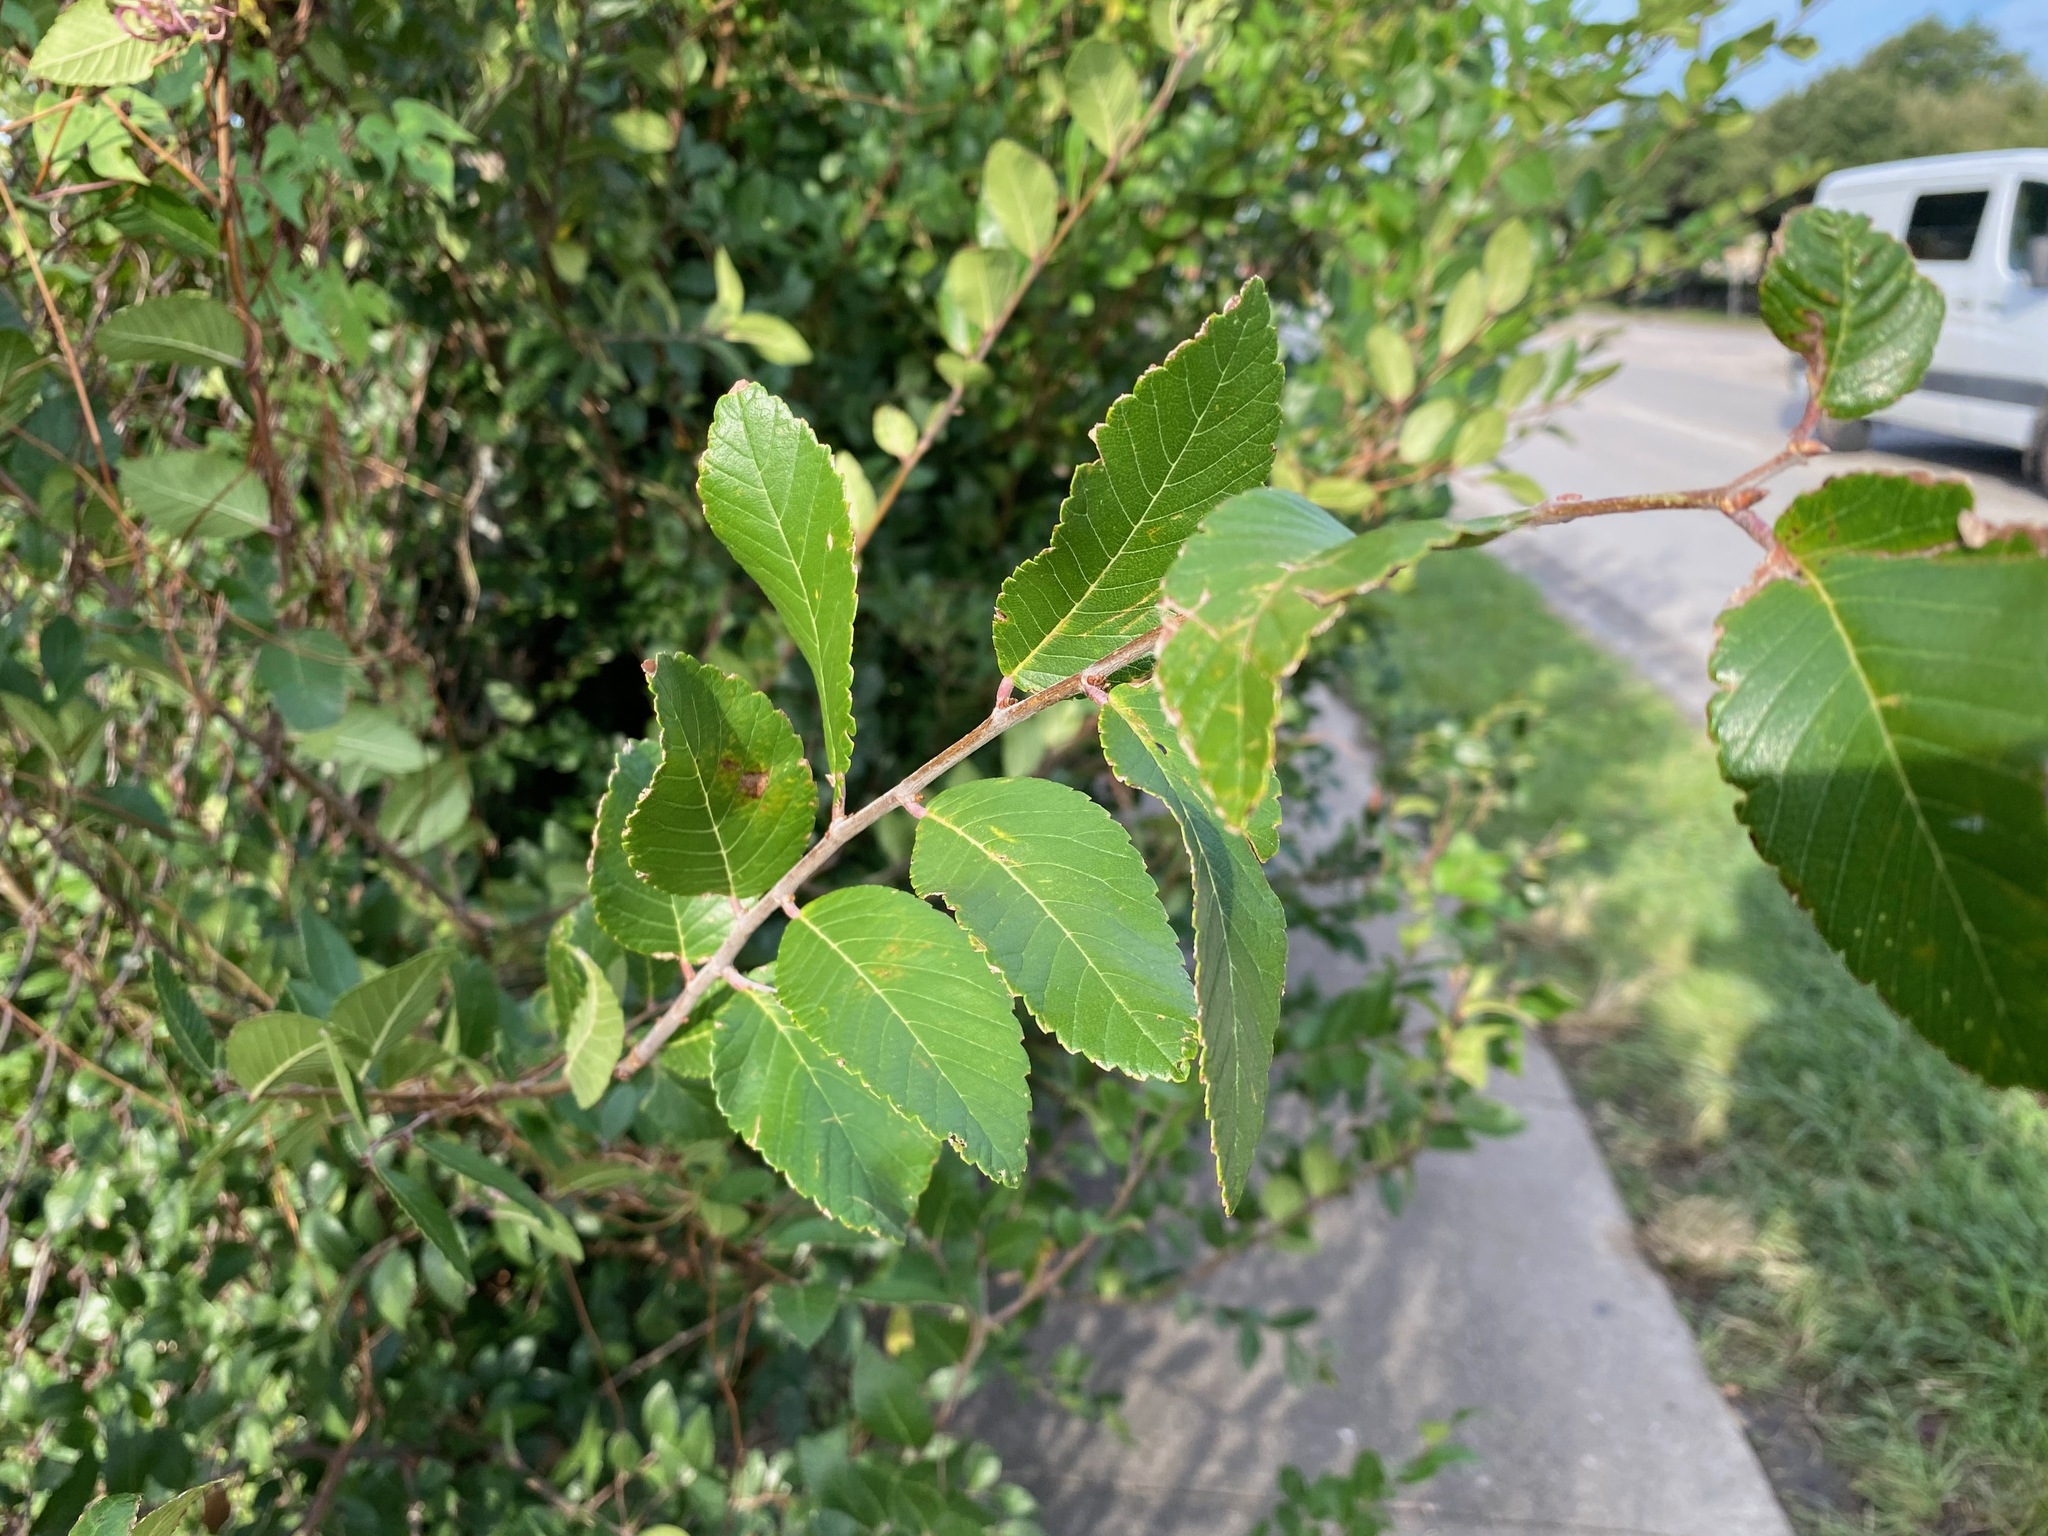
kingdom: Plantae
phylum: Tracheophyta
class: Magnoliopsida
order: Rosales
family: Ulmaceae
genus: Ulmus
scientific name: Ulmus crassifolia
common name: Basket elm
